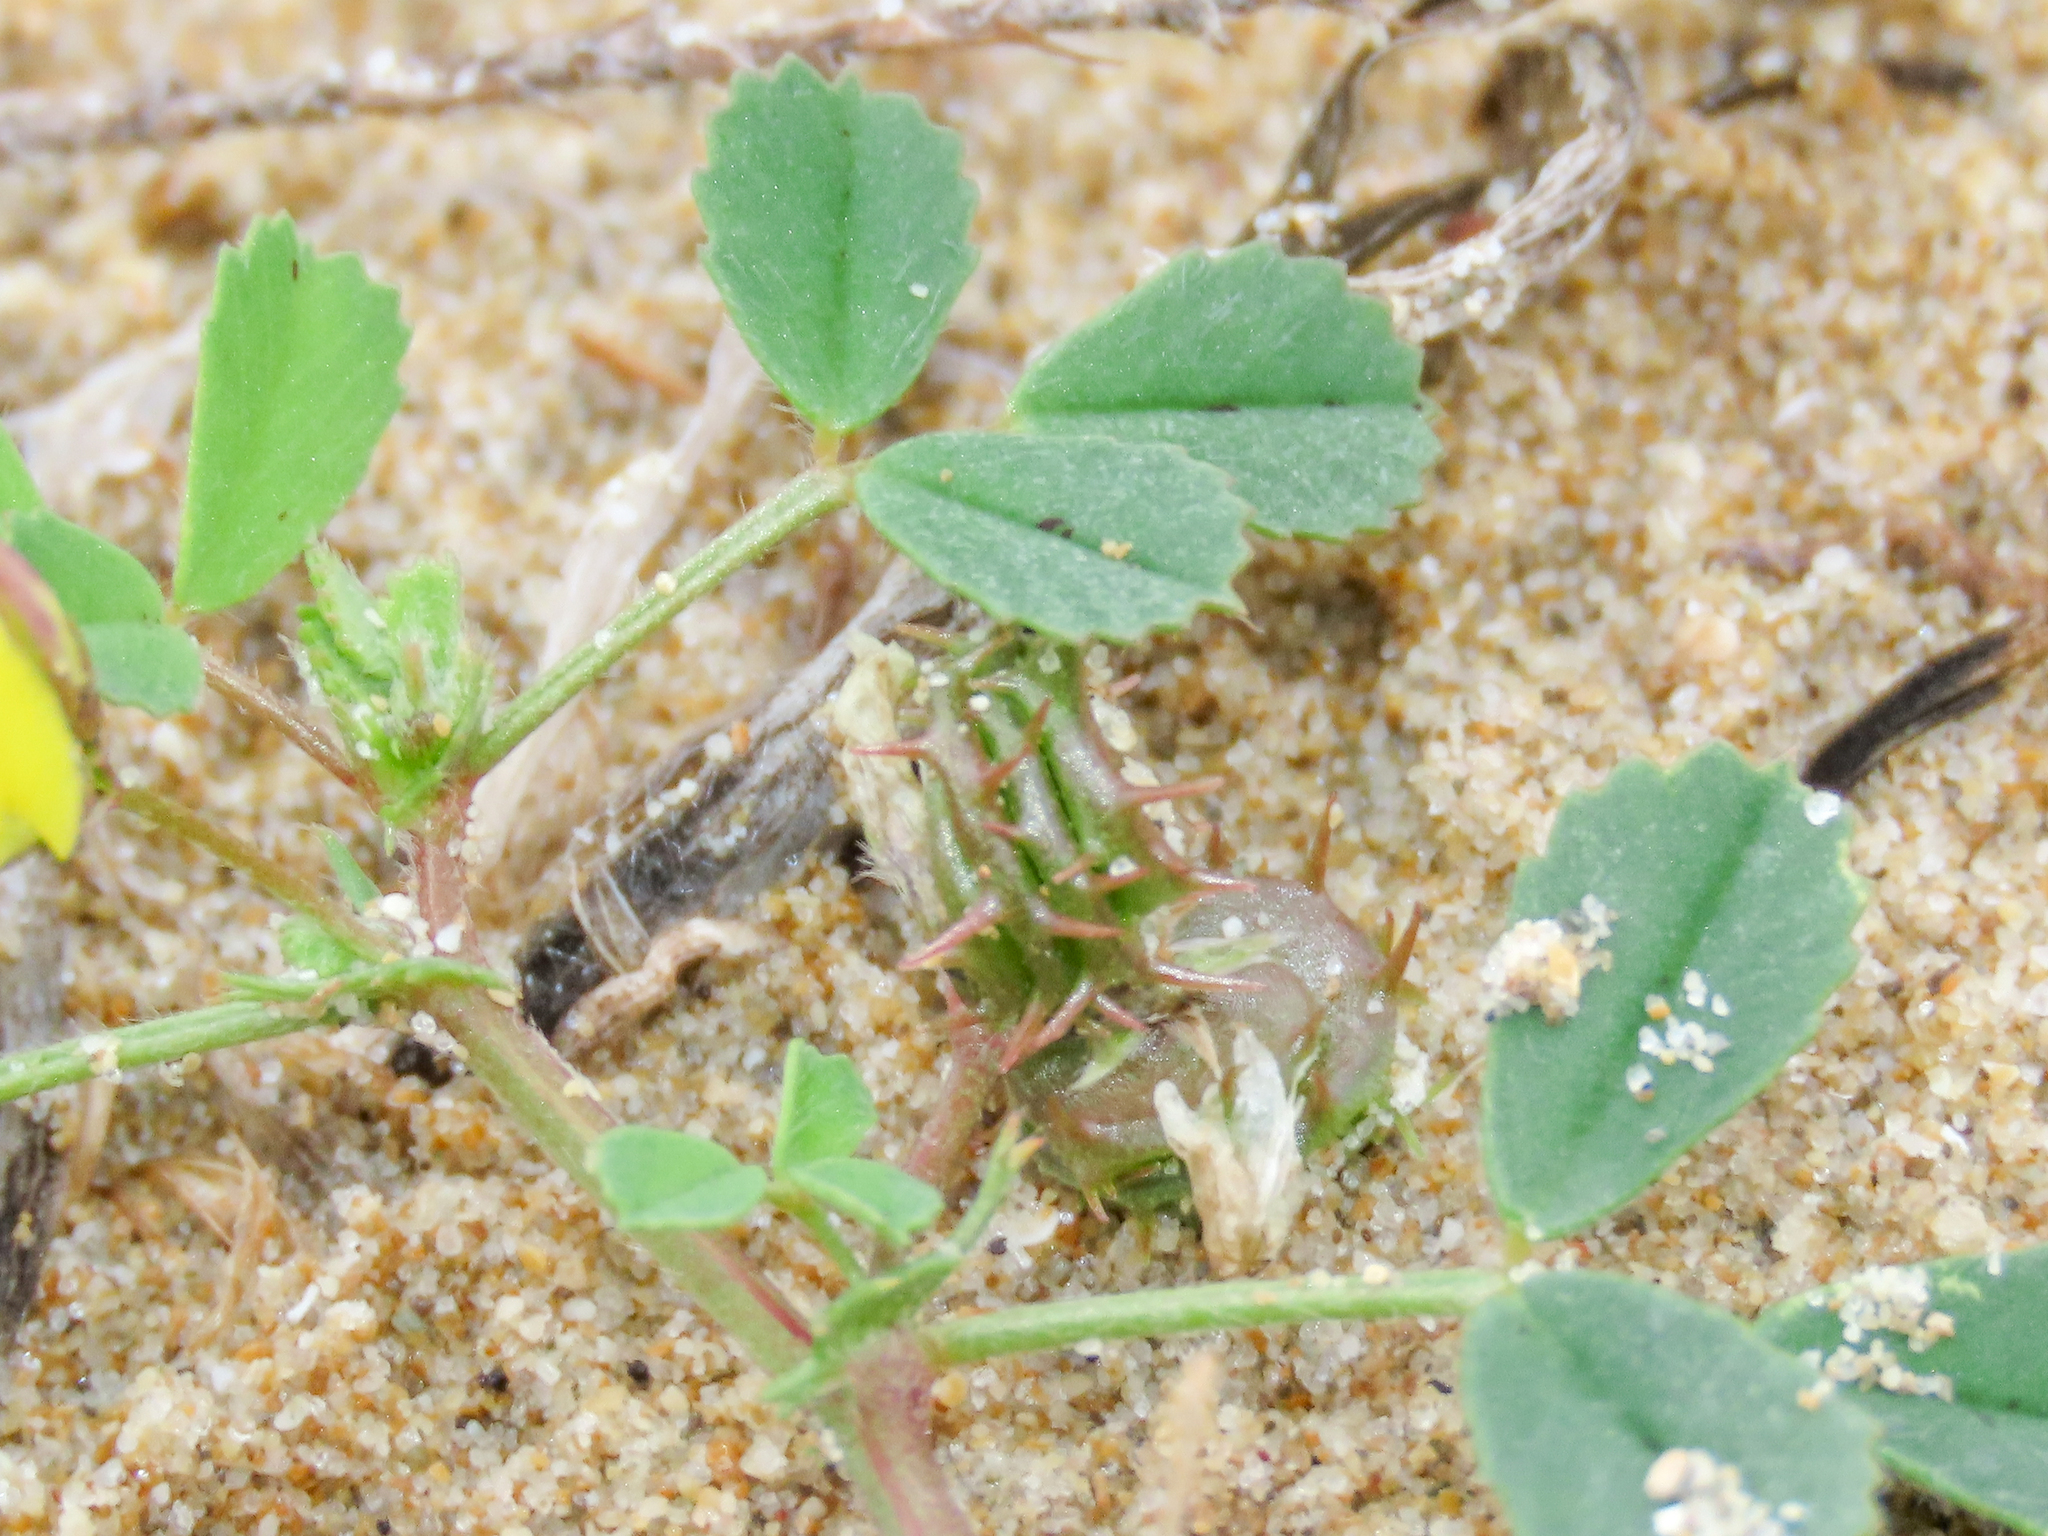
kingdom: Plantae
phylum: Tracheophyta
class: Magnoliopsida
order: Fabales
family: Fabaceae
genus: Medicago
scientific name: Medicago littoralis
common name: Shore medick
